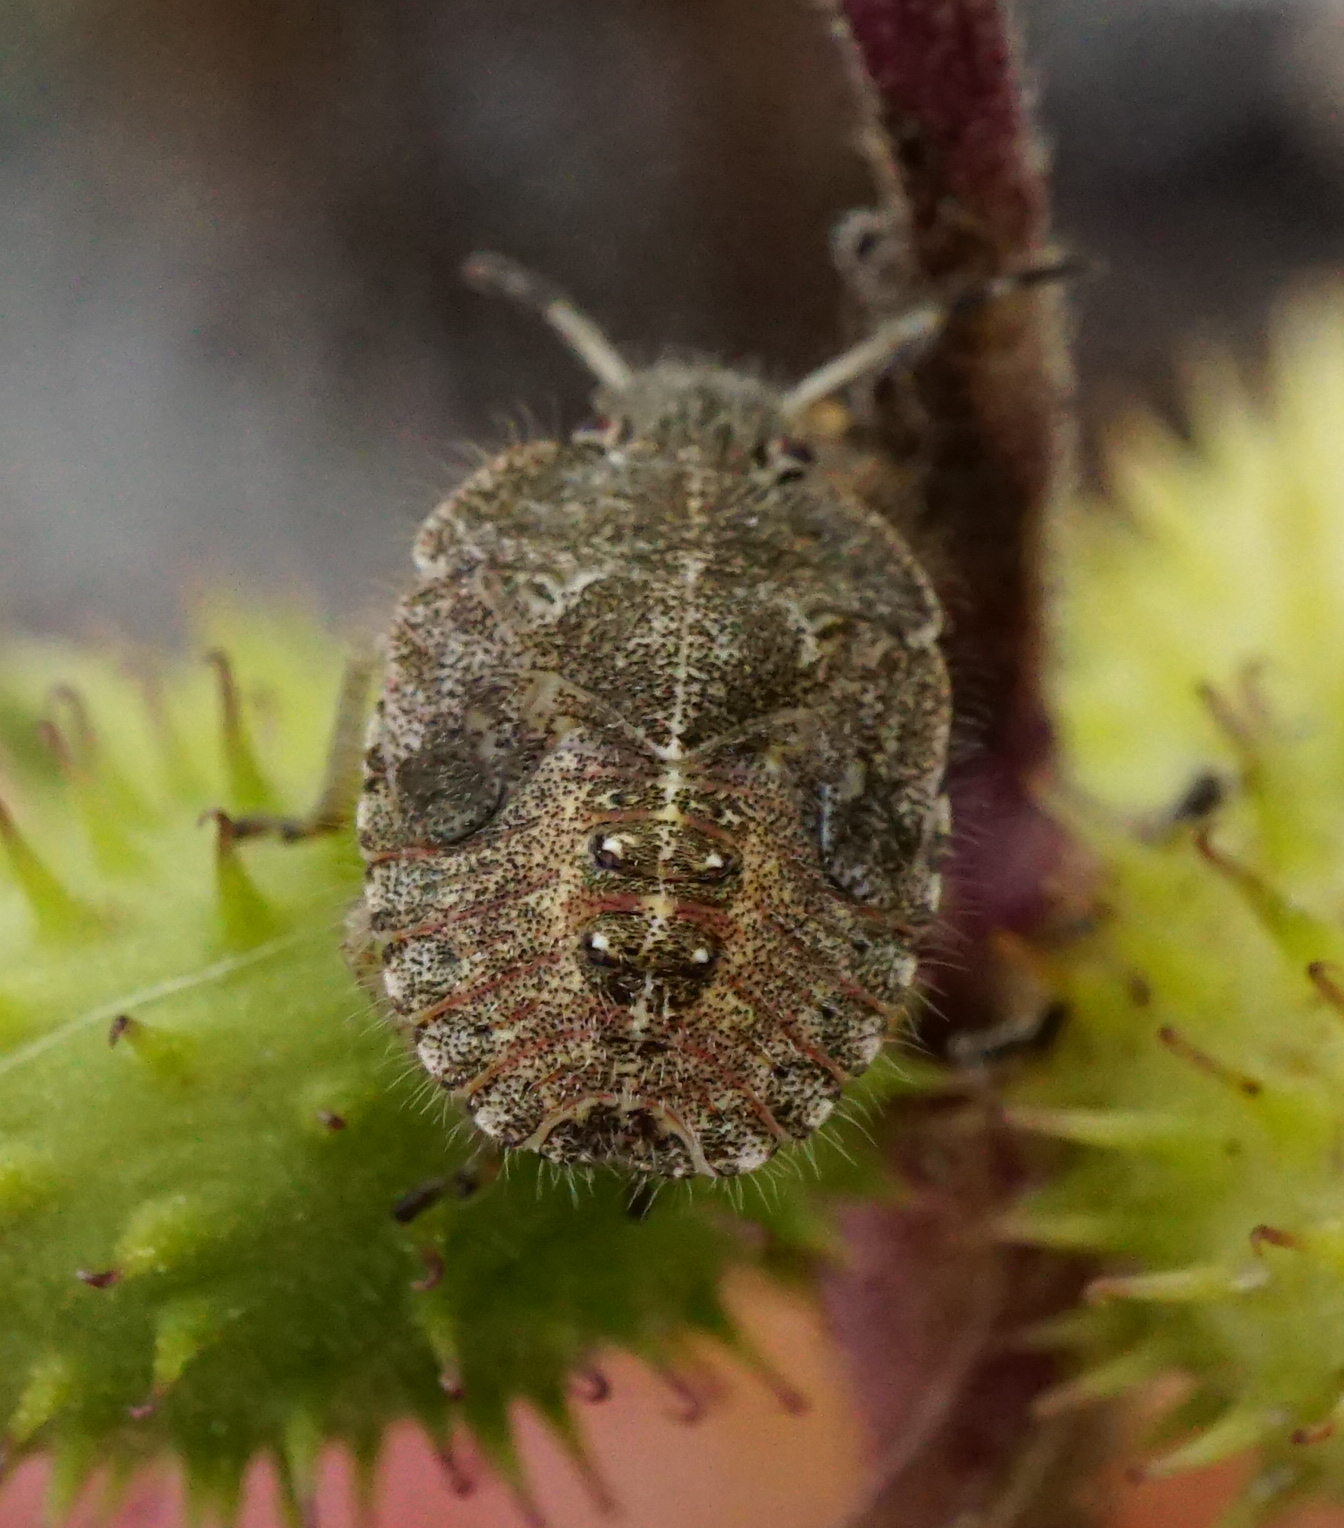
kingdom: Animalia
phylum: Arthropoda
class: Insecta
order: Hemiptera
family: Pentatomidae
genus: Dolycoris
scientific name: Dolycoris baccarum
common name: Sloe bug
